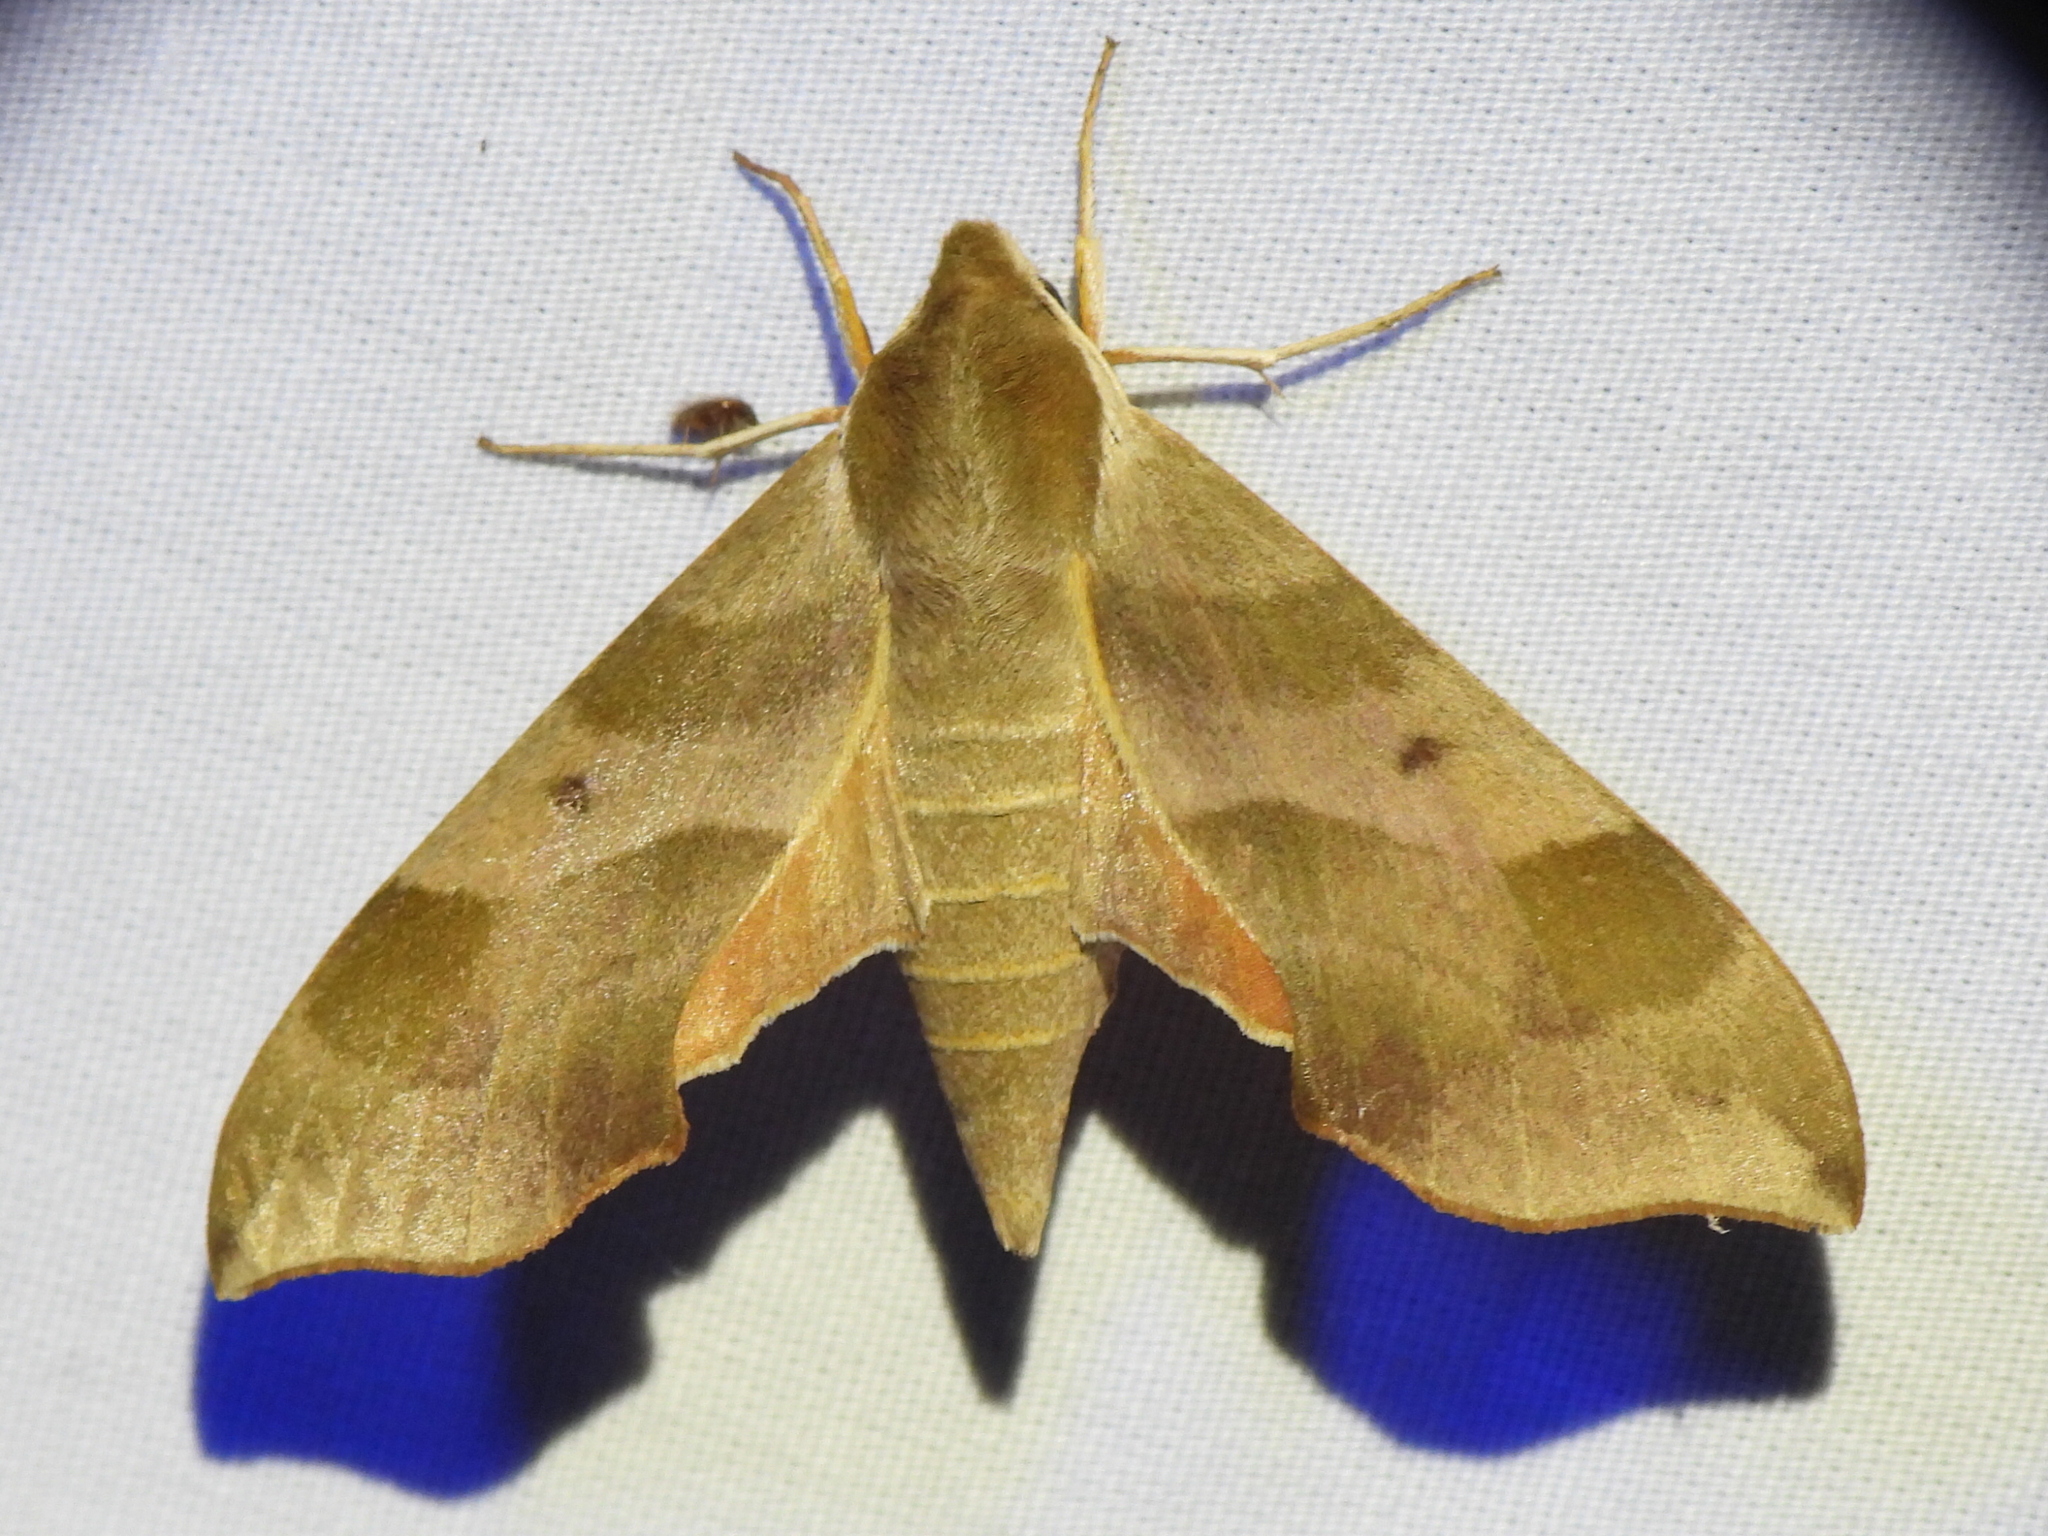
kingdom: Animalia
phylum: Arthropoda
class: Insecta
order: Lepidoptera
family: Sphingidae
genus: Darapsa
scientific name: Darapsa myron
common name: Hog sphinx
